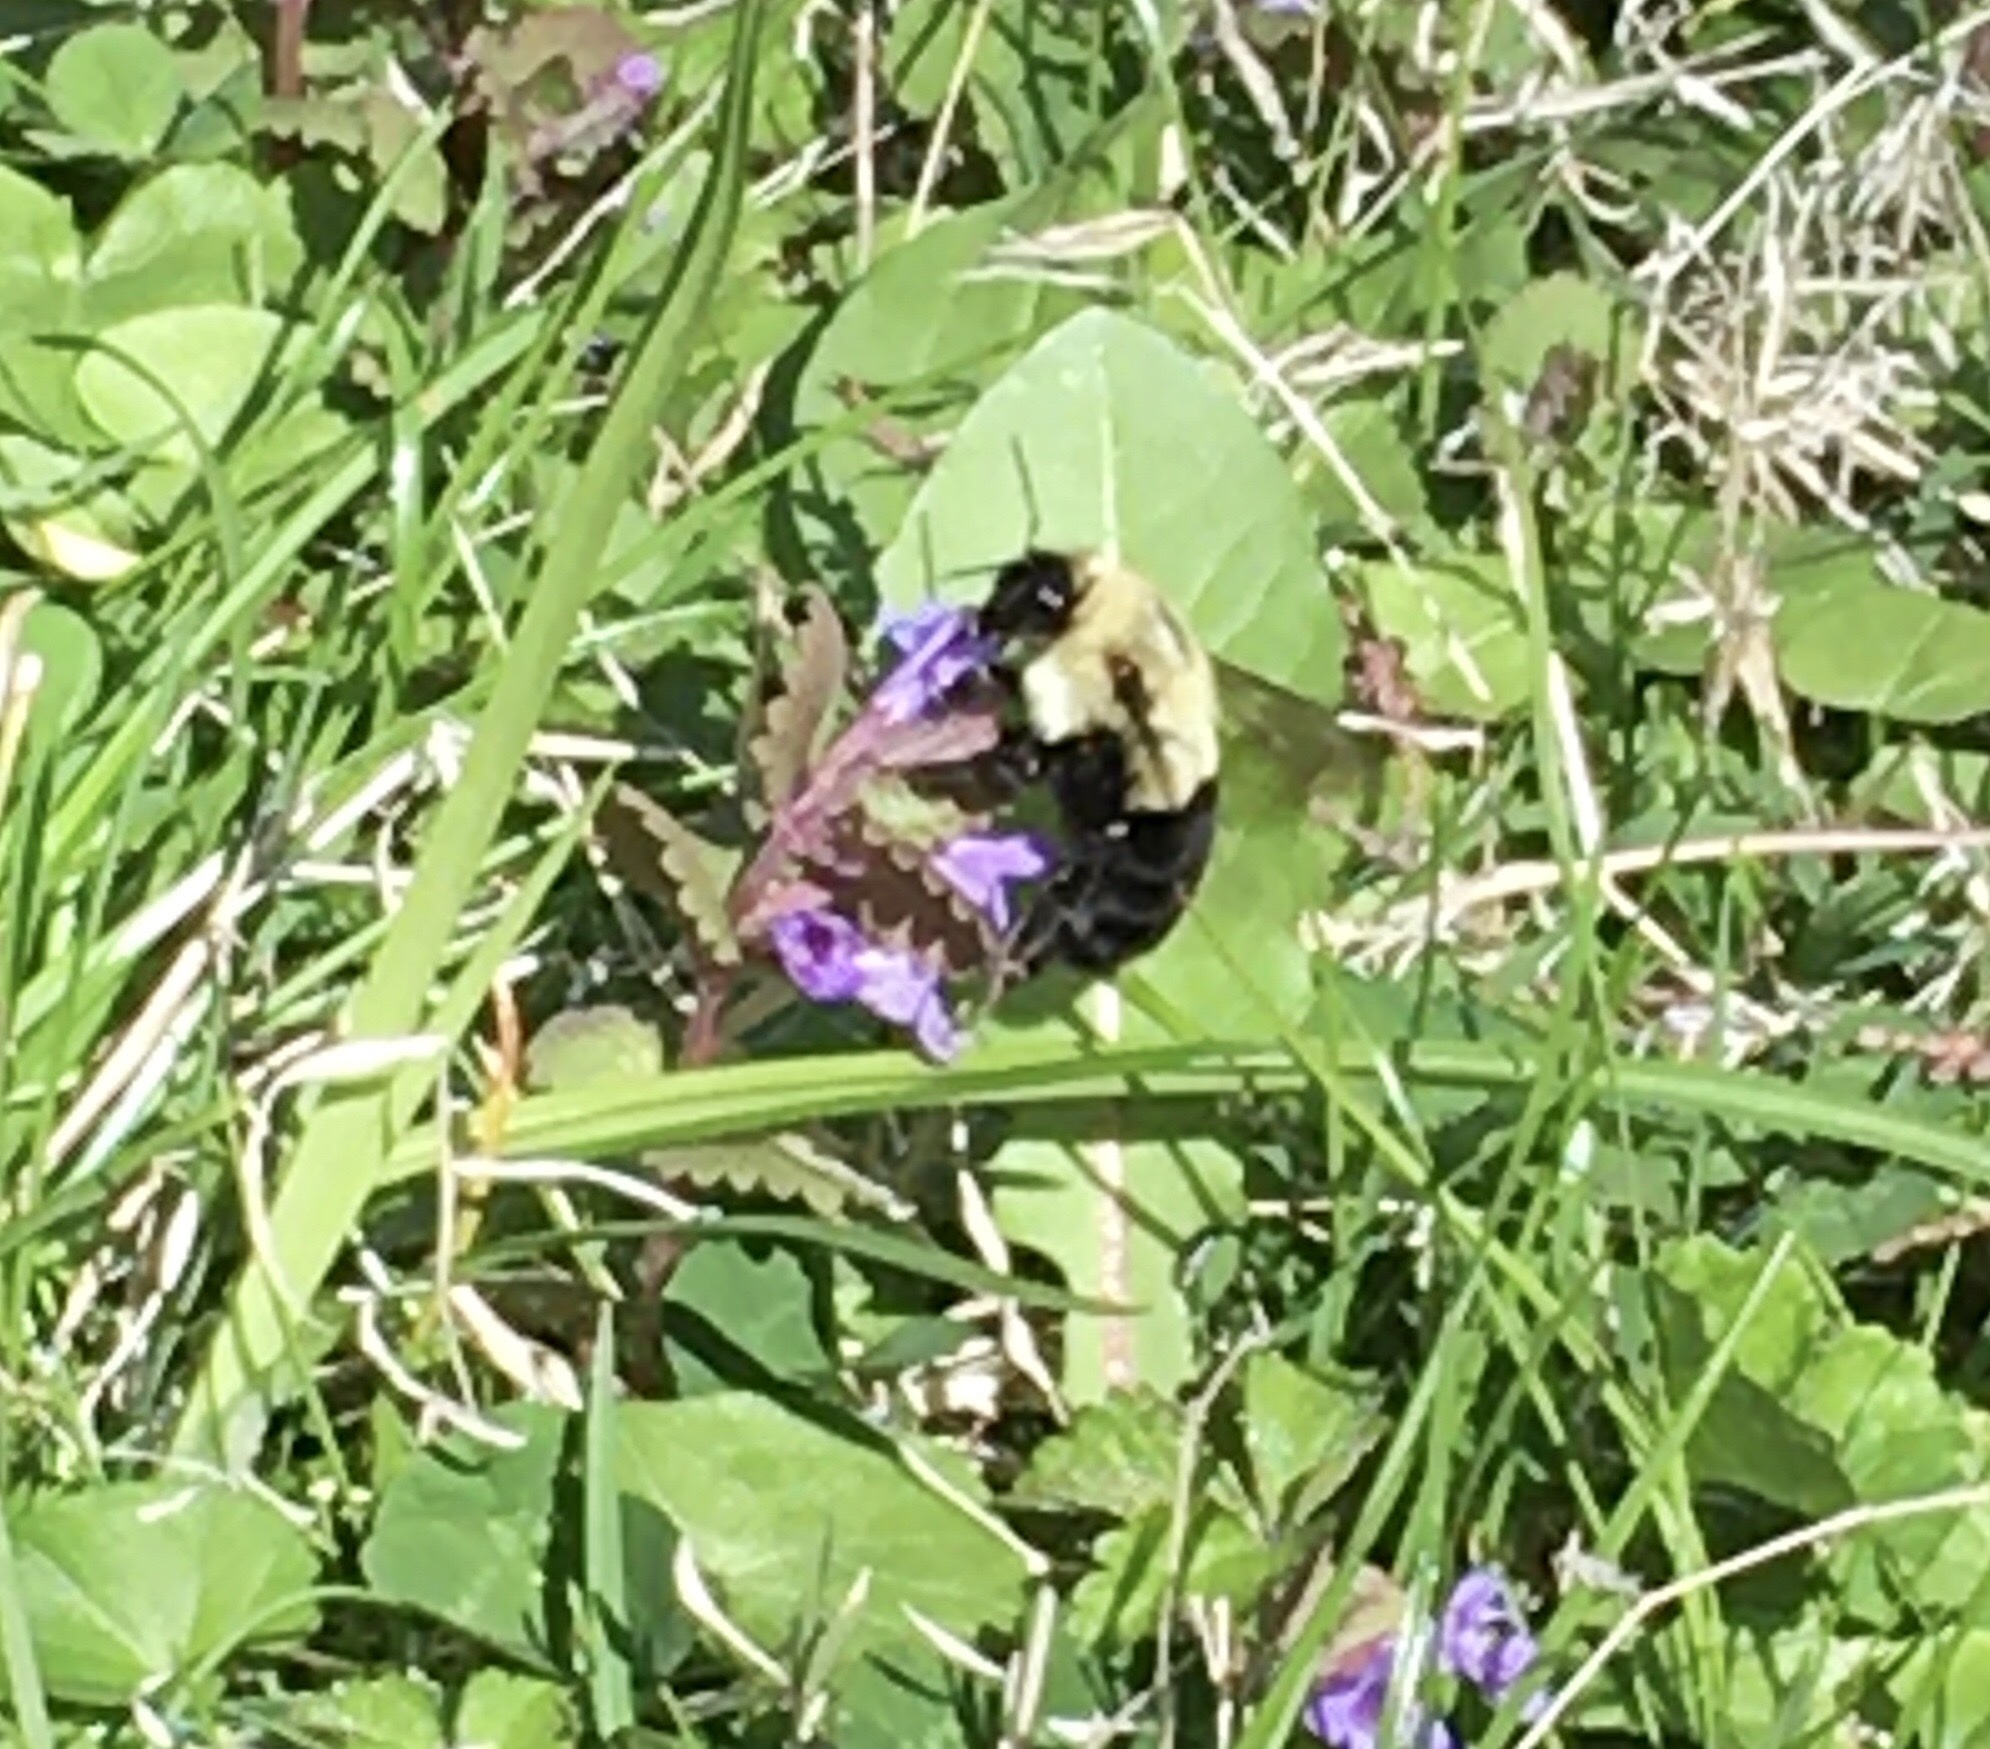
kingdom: Animalia
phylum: Arthropoda
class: Insecta
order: Hymenoptera
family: Apidae
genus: Bombus
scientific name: Bombus impatiens
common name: Common eastern bumble bee
